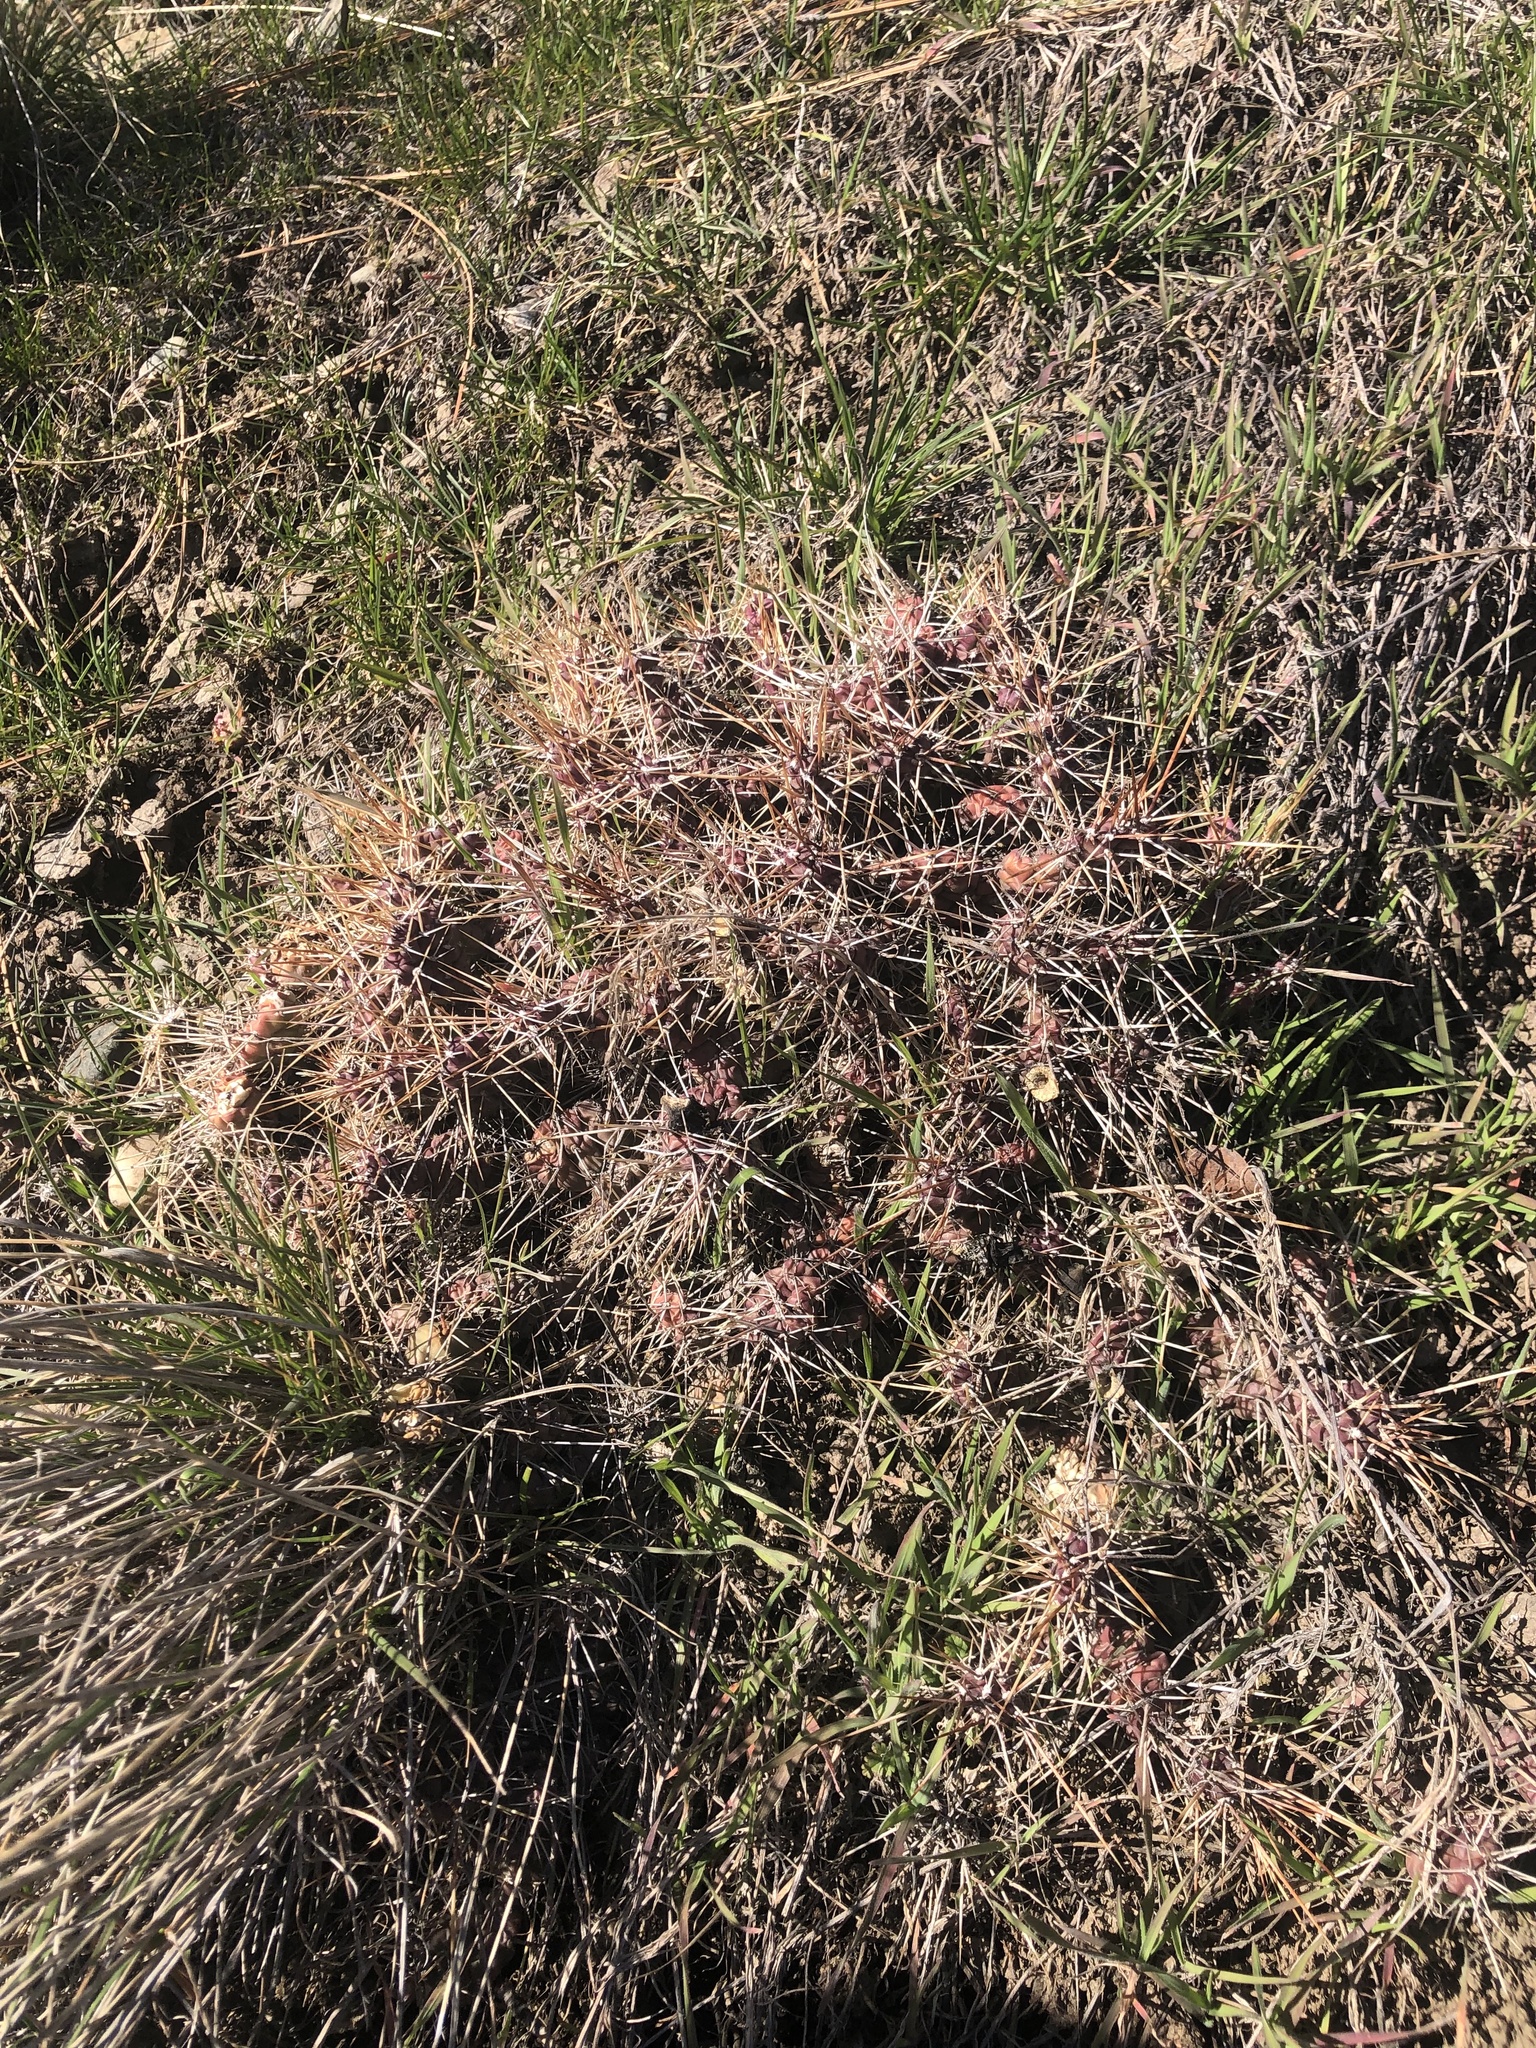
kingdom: Plantae
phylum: Tracheophyta
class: Magnoliopsida
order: Caryophyllales
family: Cactaceae
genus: Opuntia
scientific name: Opuntia fragilis
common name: Brittle cactus
